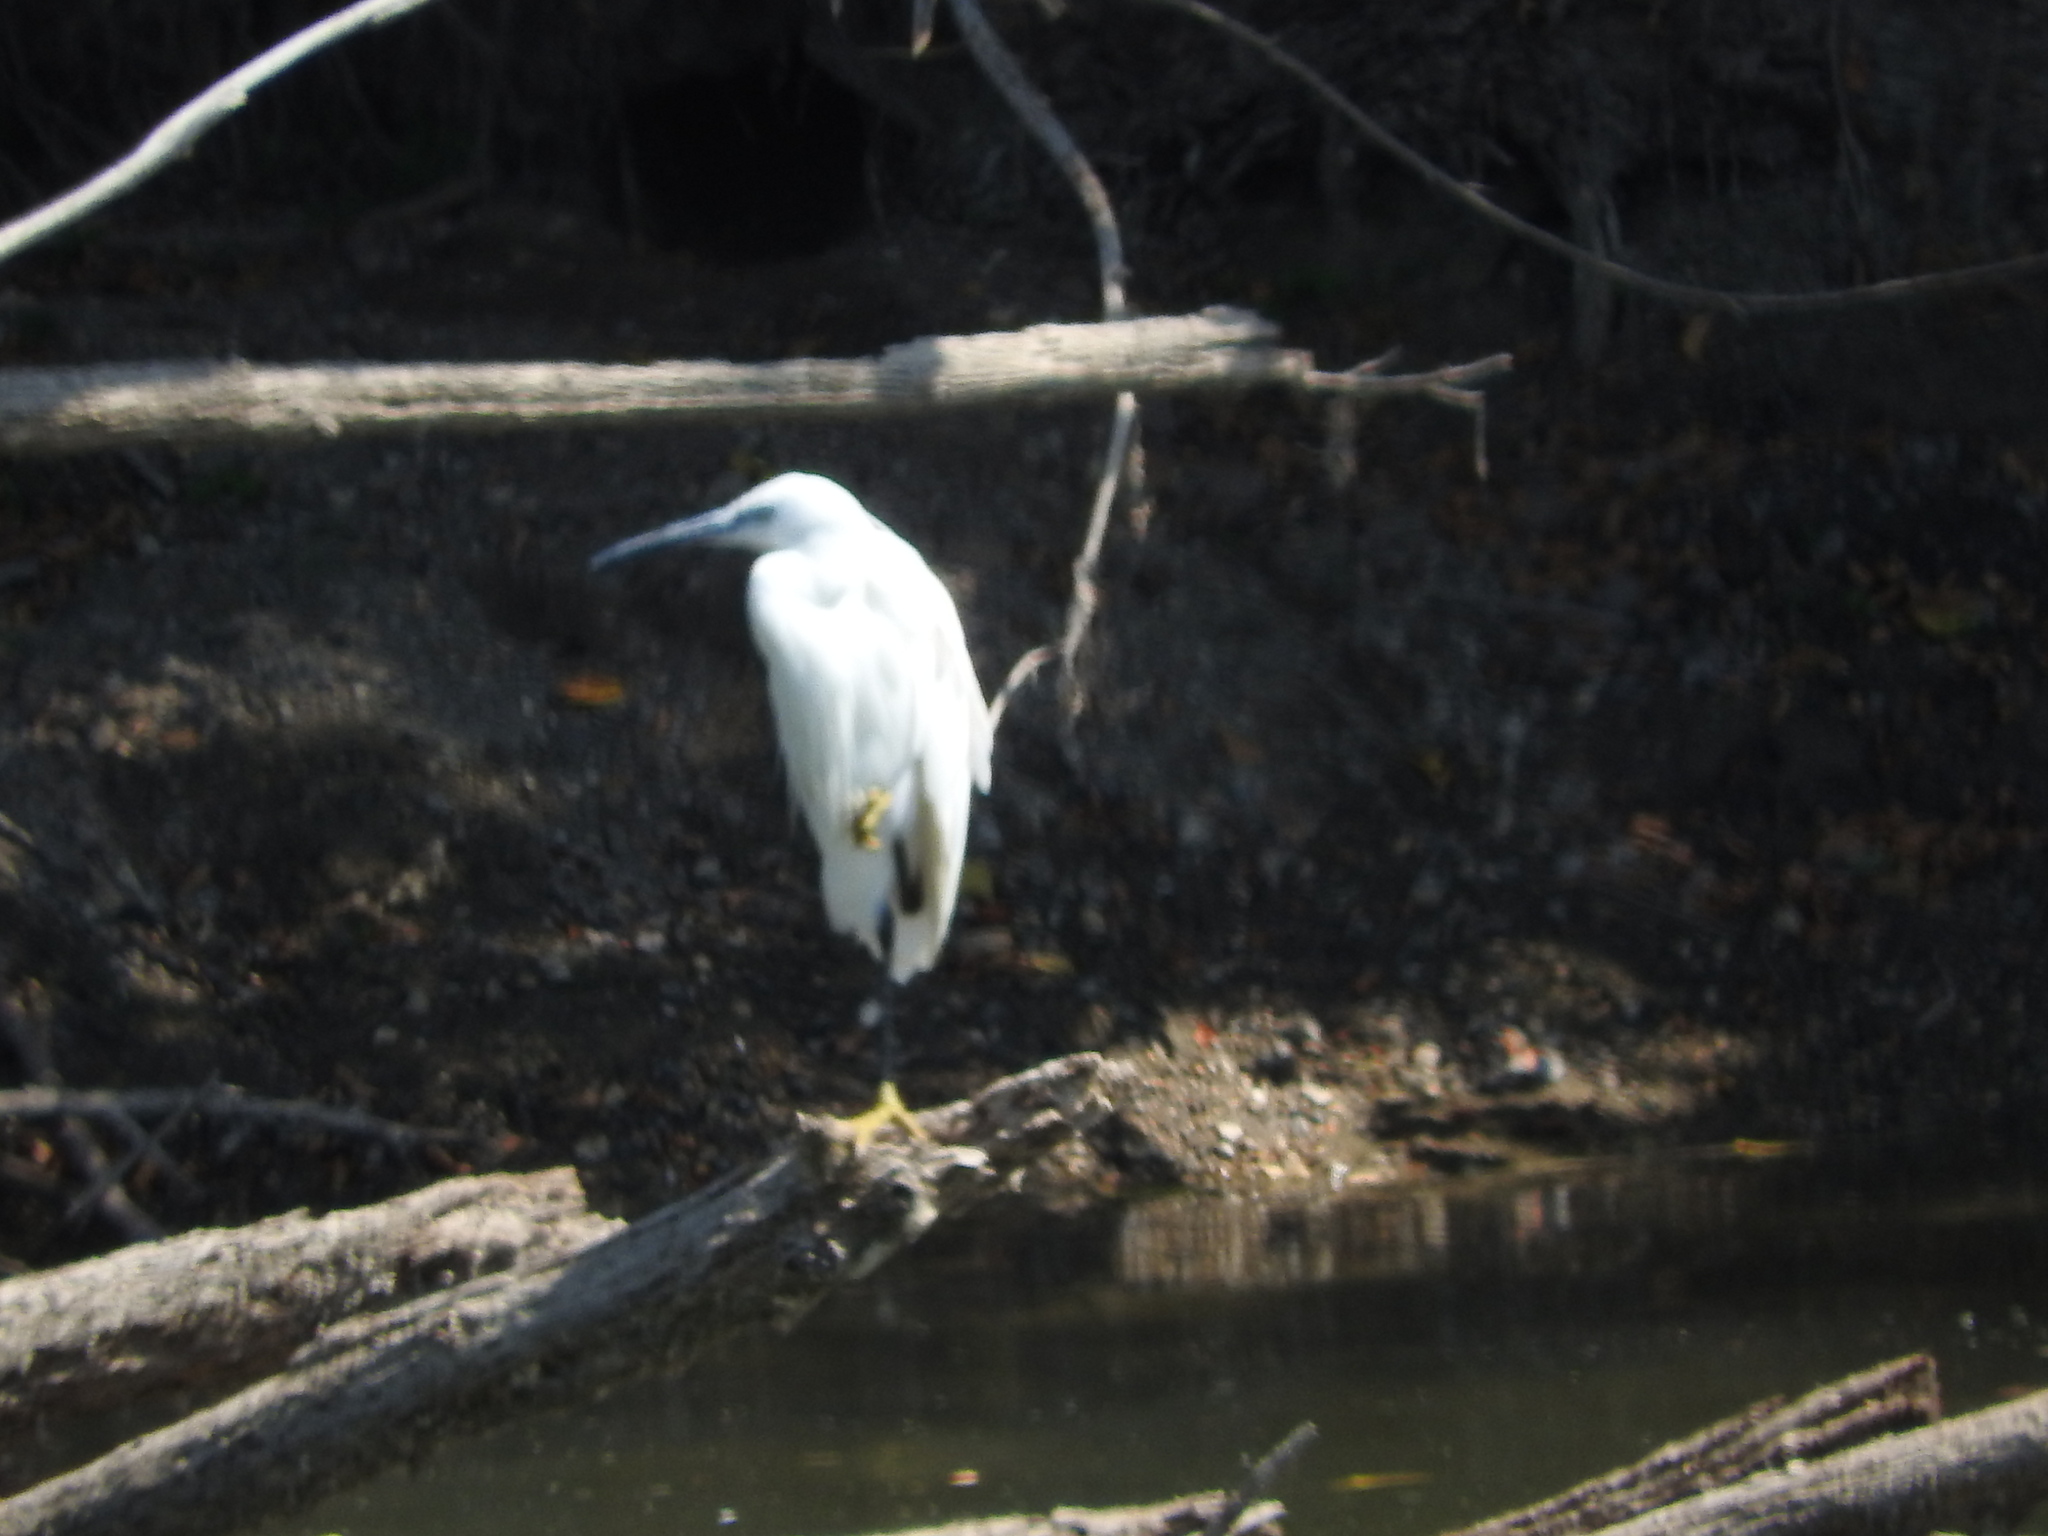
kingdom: Animalia
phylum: Chordata
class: Aves
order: Pelecaniformes
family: Ardeidae
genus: Egretta
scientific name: Egretta garzetta
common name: Little egret
